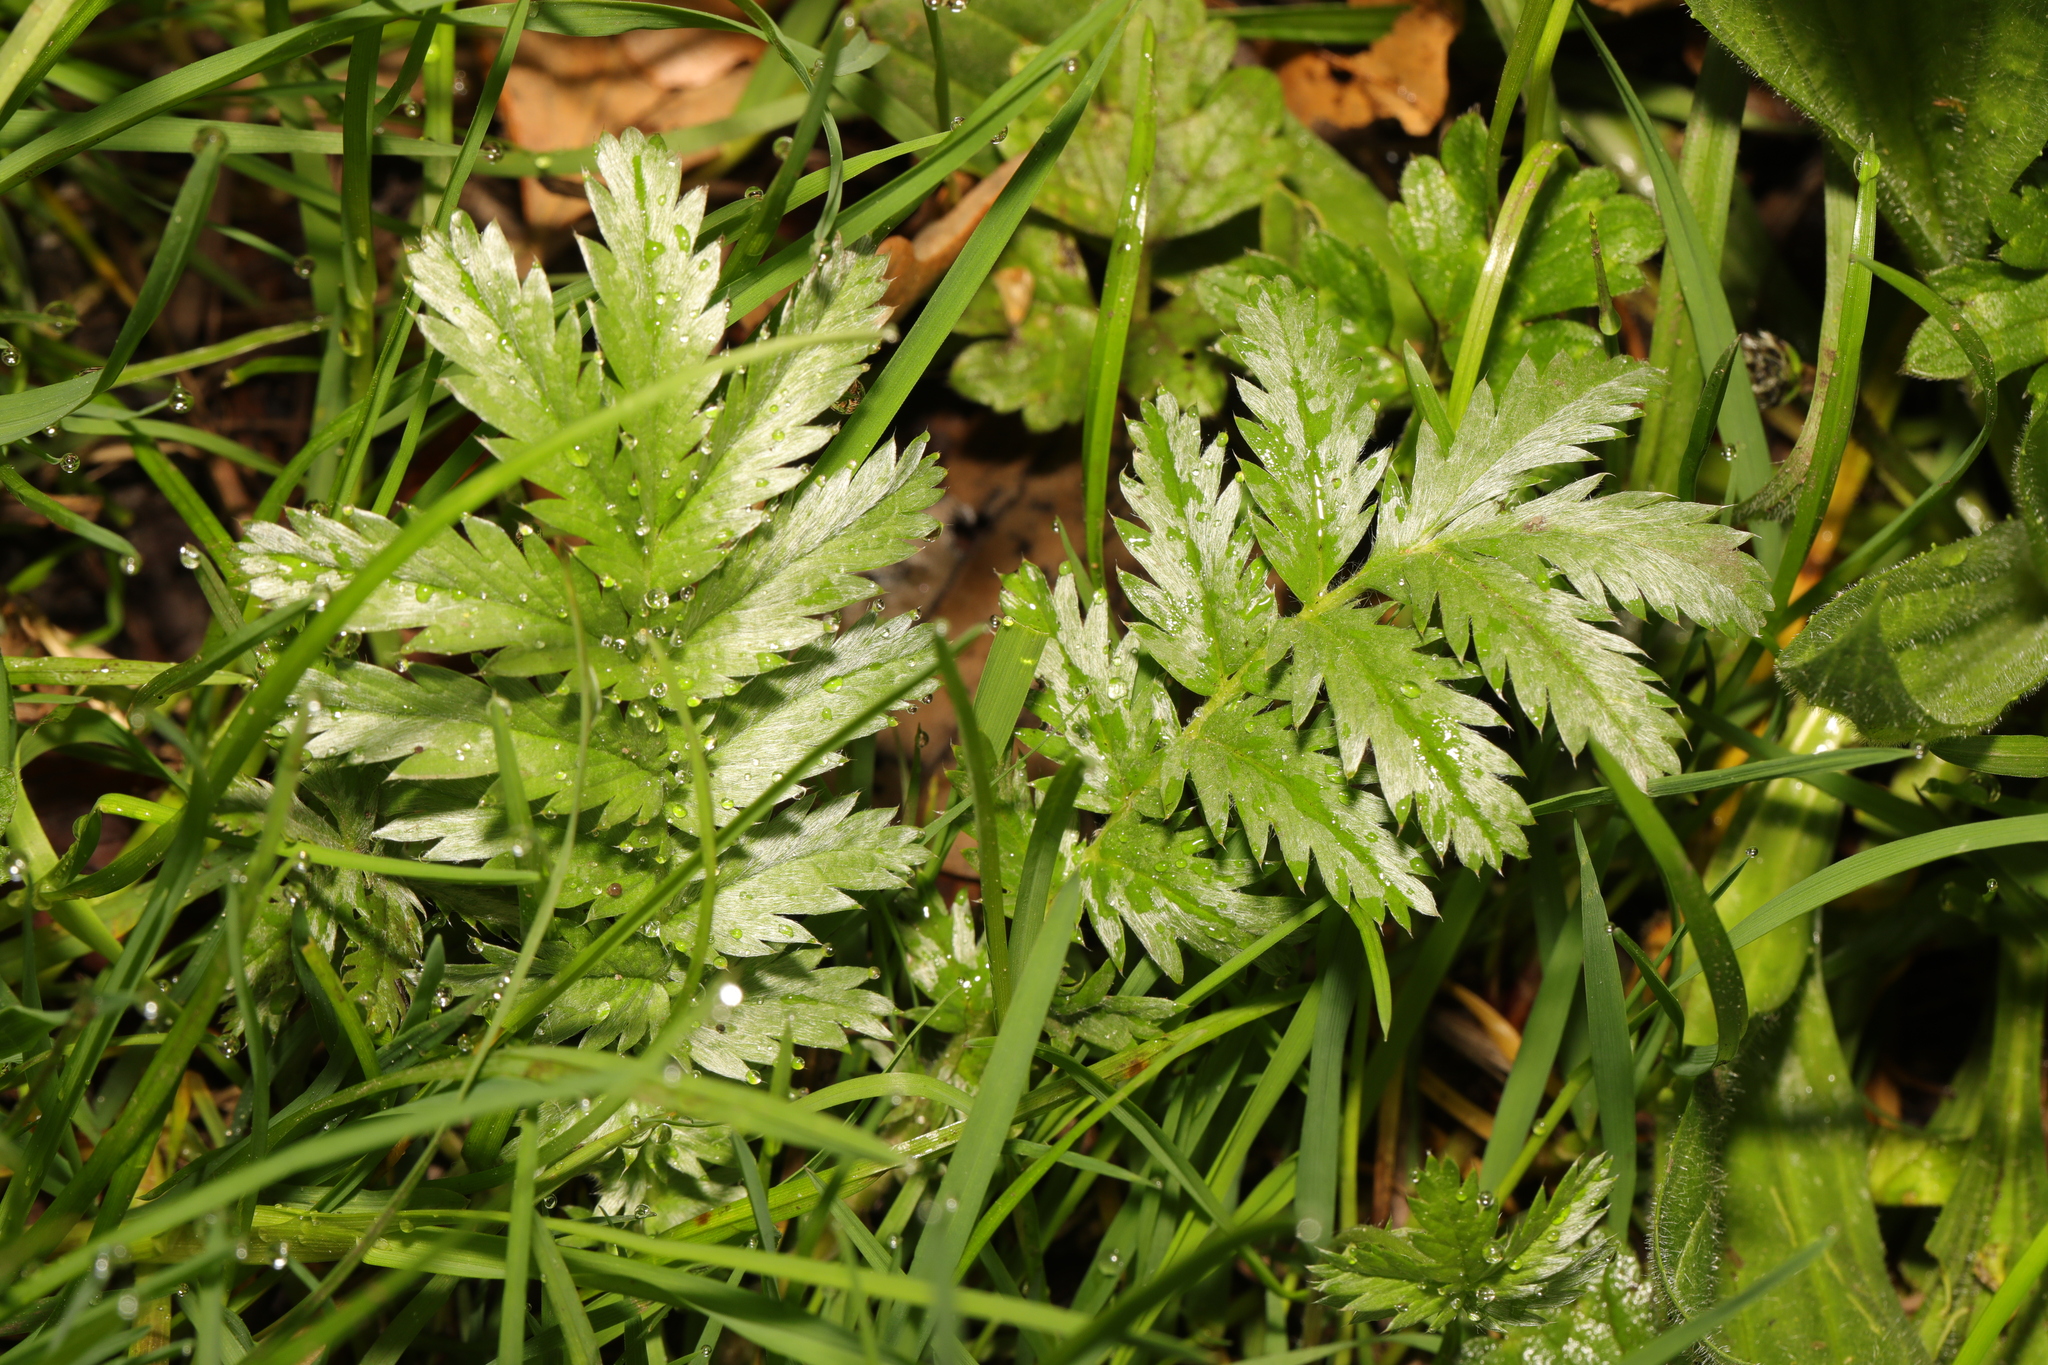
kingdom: Plantae
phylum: Tracheophyta
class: Magnoliopsida
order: Rosales
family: Rosaceae
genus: Argentina
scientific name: Argentina anserina
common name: Common silverweed
